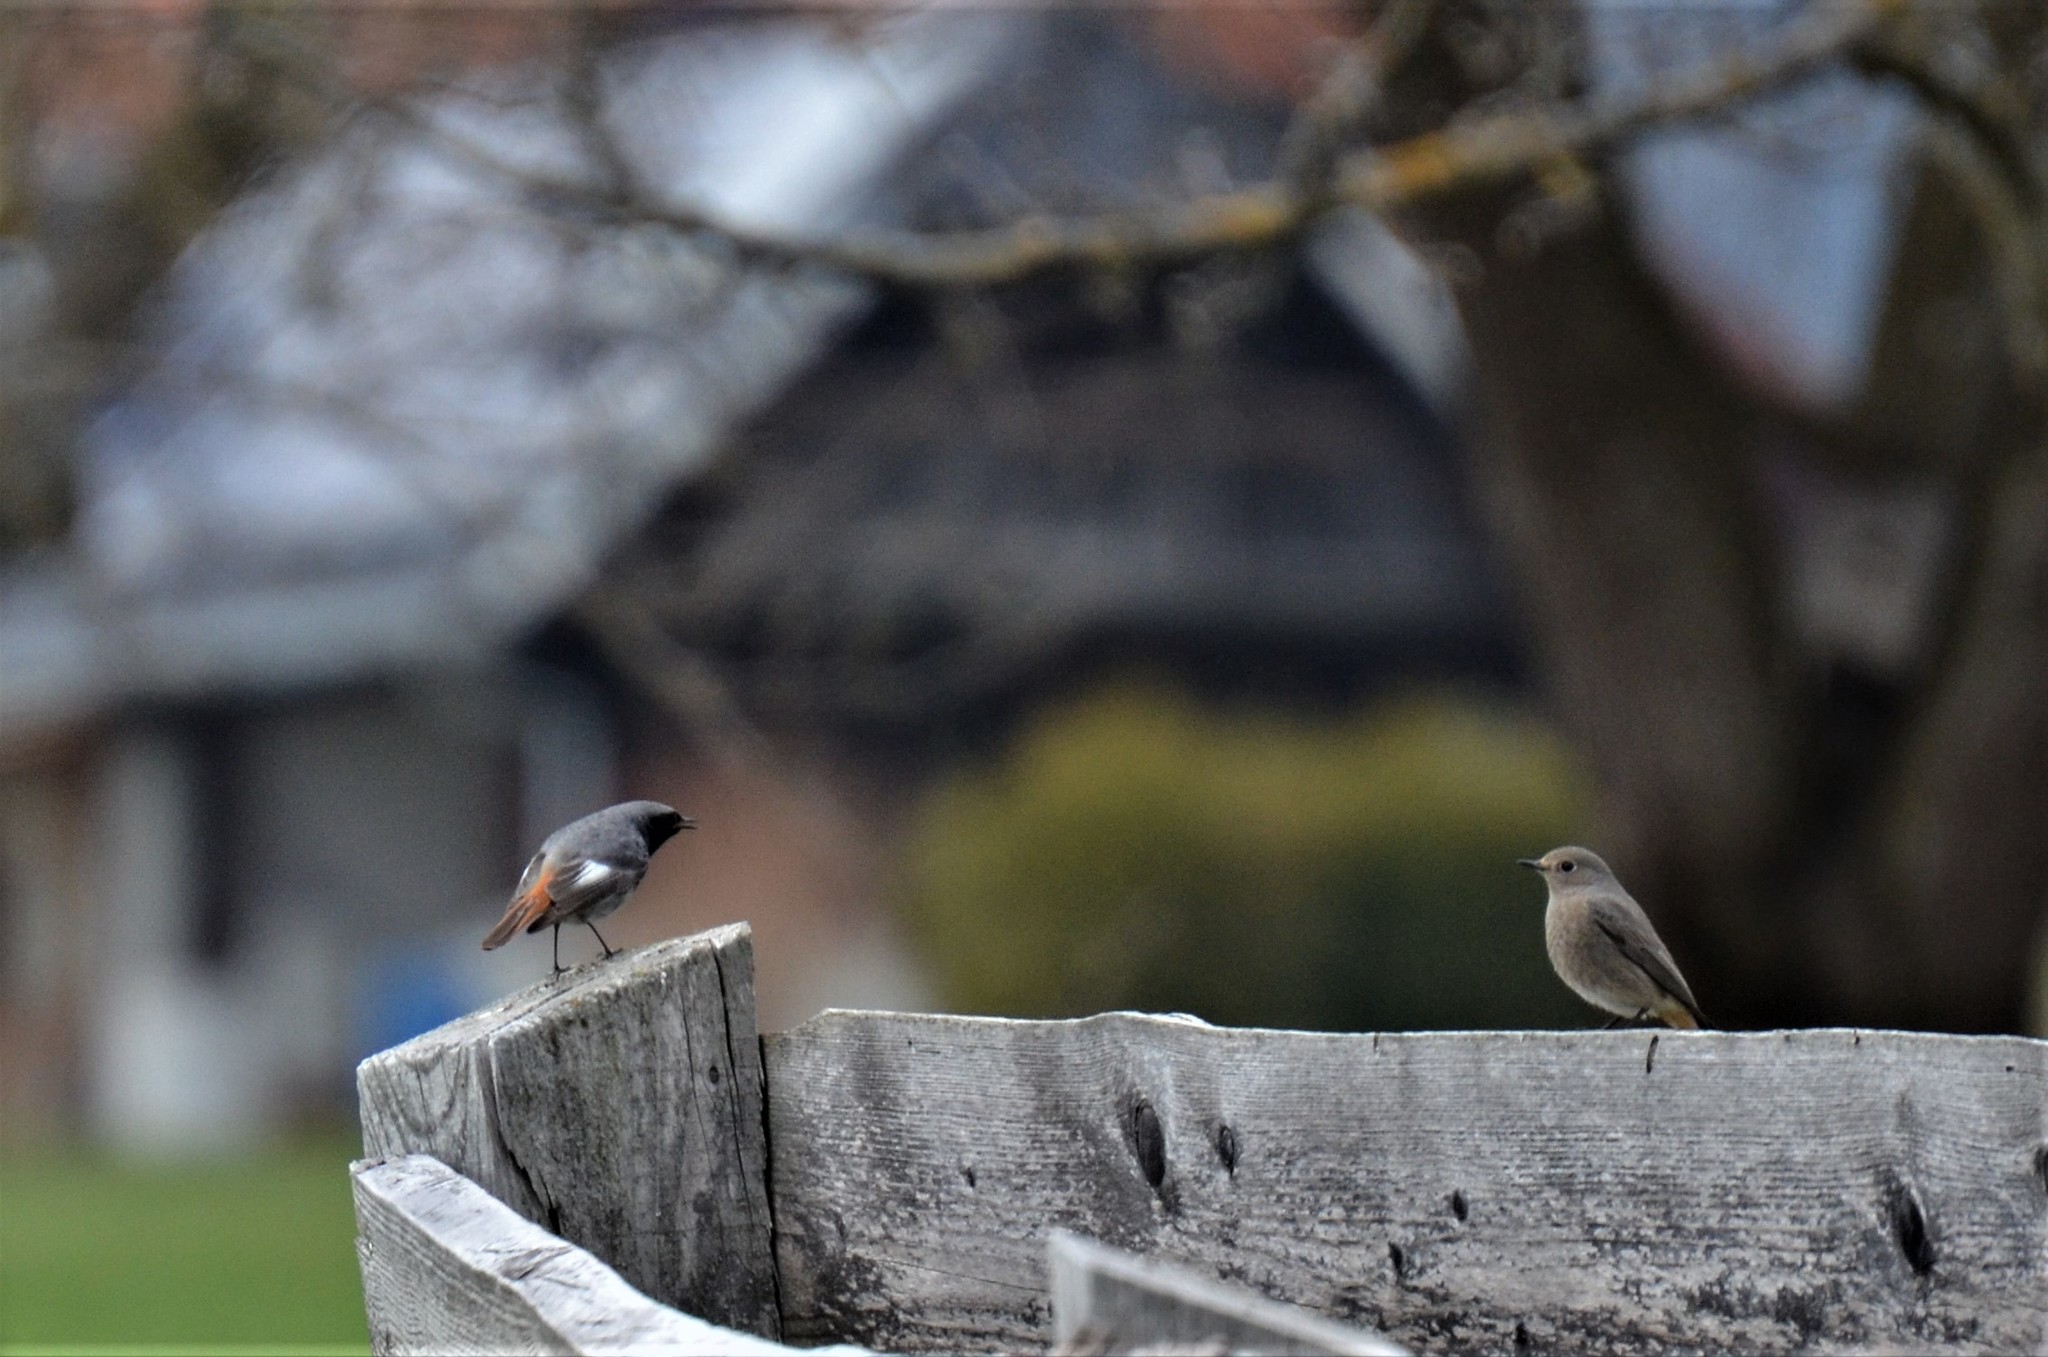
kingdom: Animalia
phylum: Chordata
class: Aves
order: Passeriformes
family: Muscicapidae
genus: Phoenicurus
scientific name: Phoenicurus ochruros
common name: Black redstart
